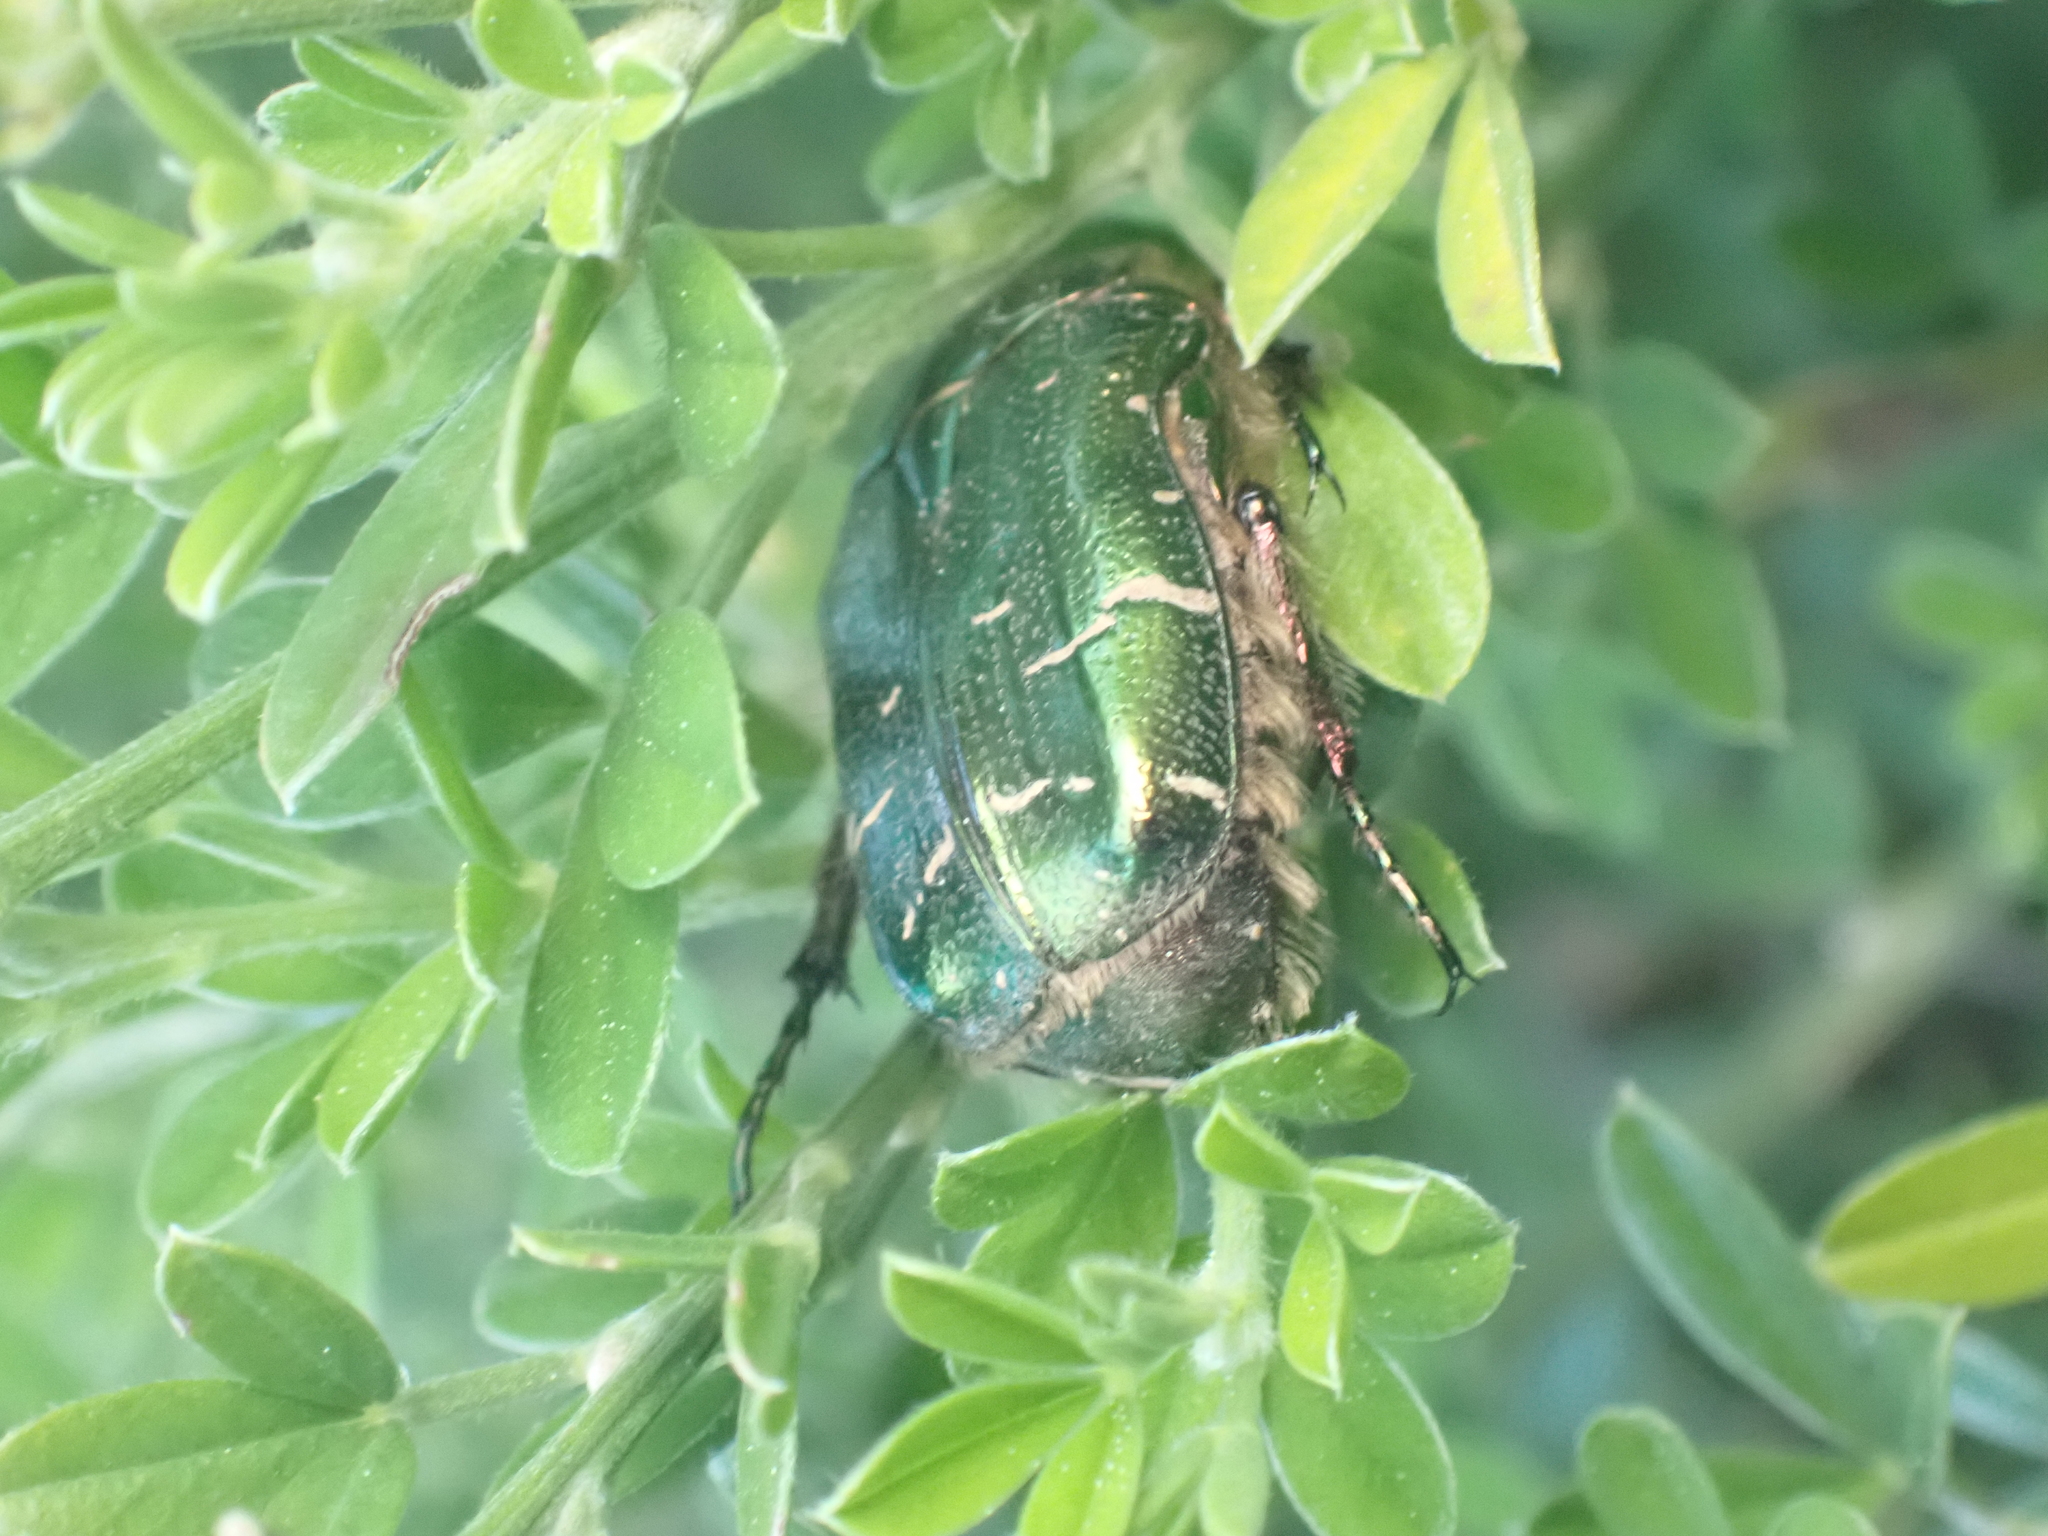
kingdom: Animalia
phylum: Arthropoda
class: Insecta
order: Coleoptera
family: Scarabaeidae
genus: Cetonia
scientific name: Cetonia aurata
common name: Rose chafer
